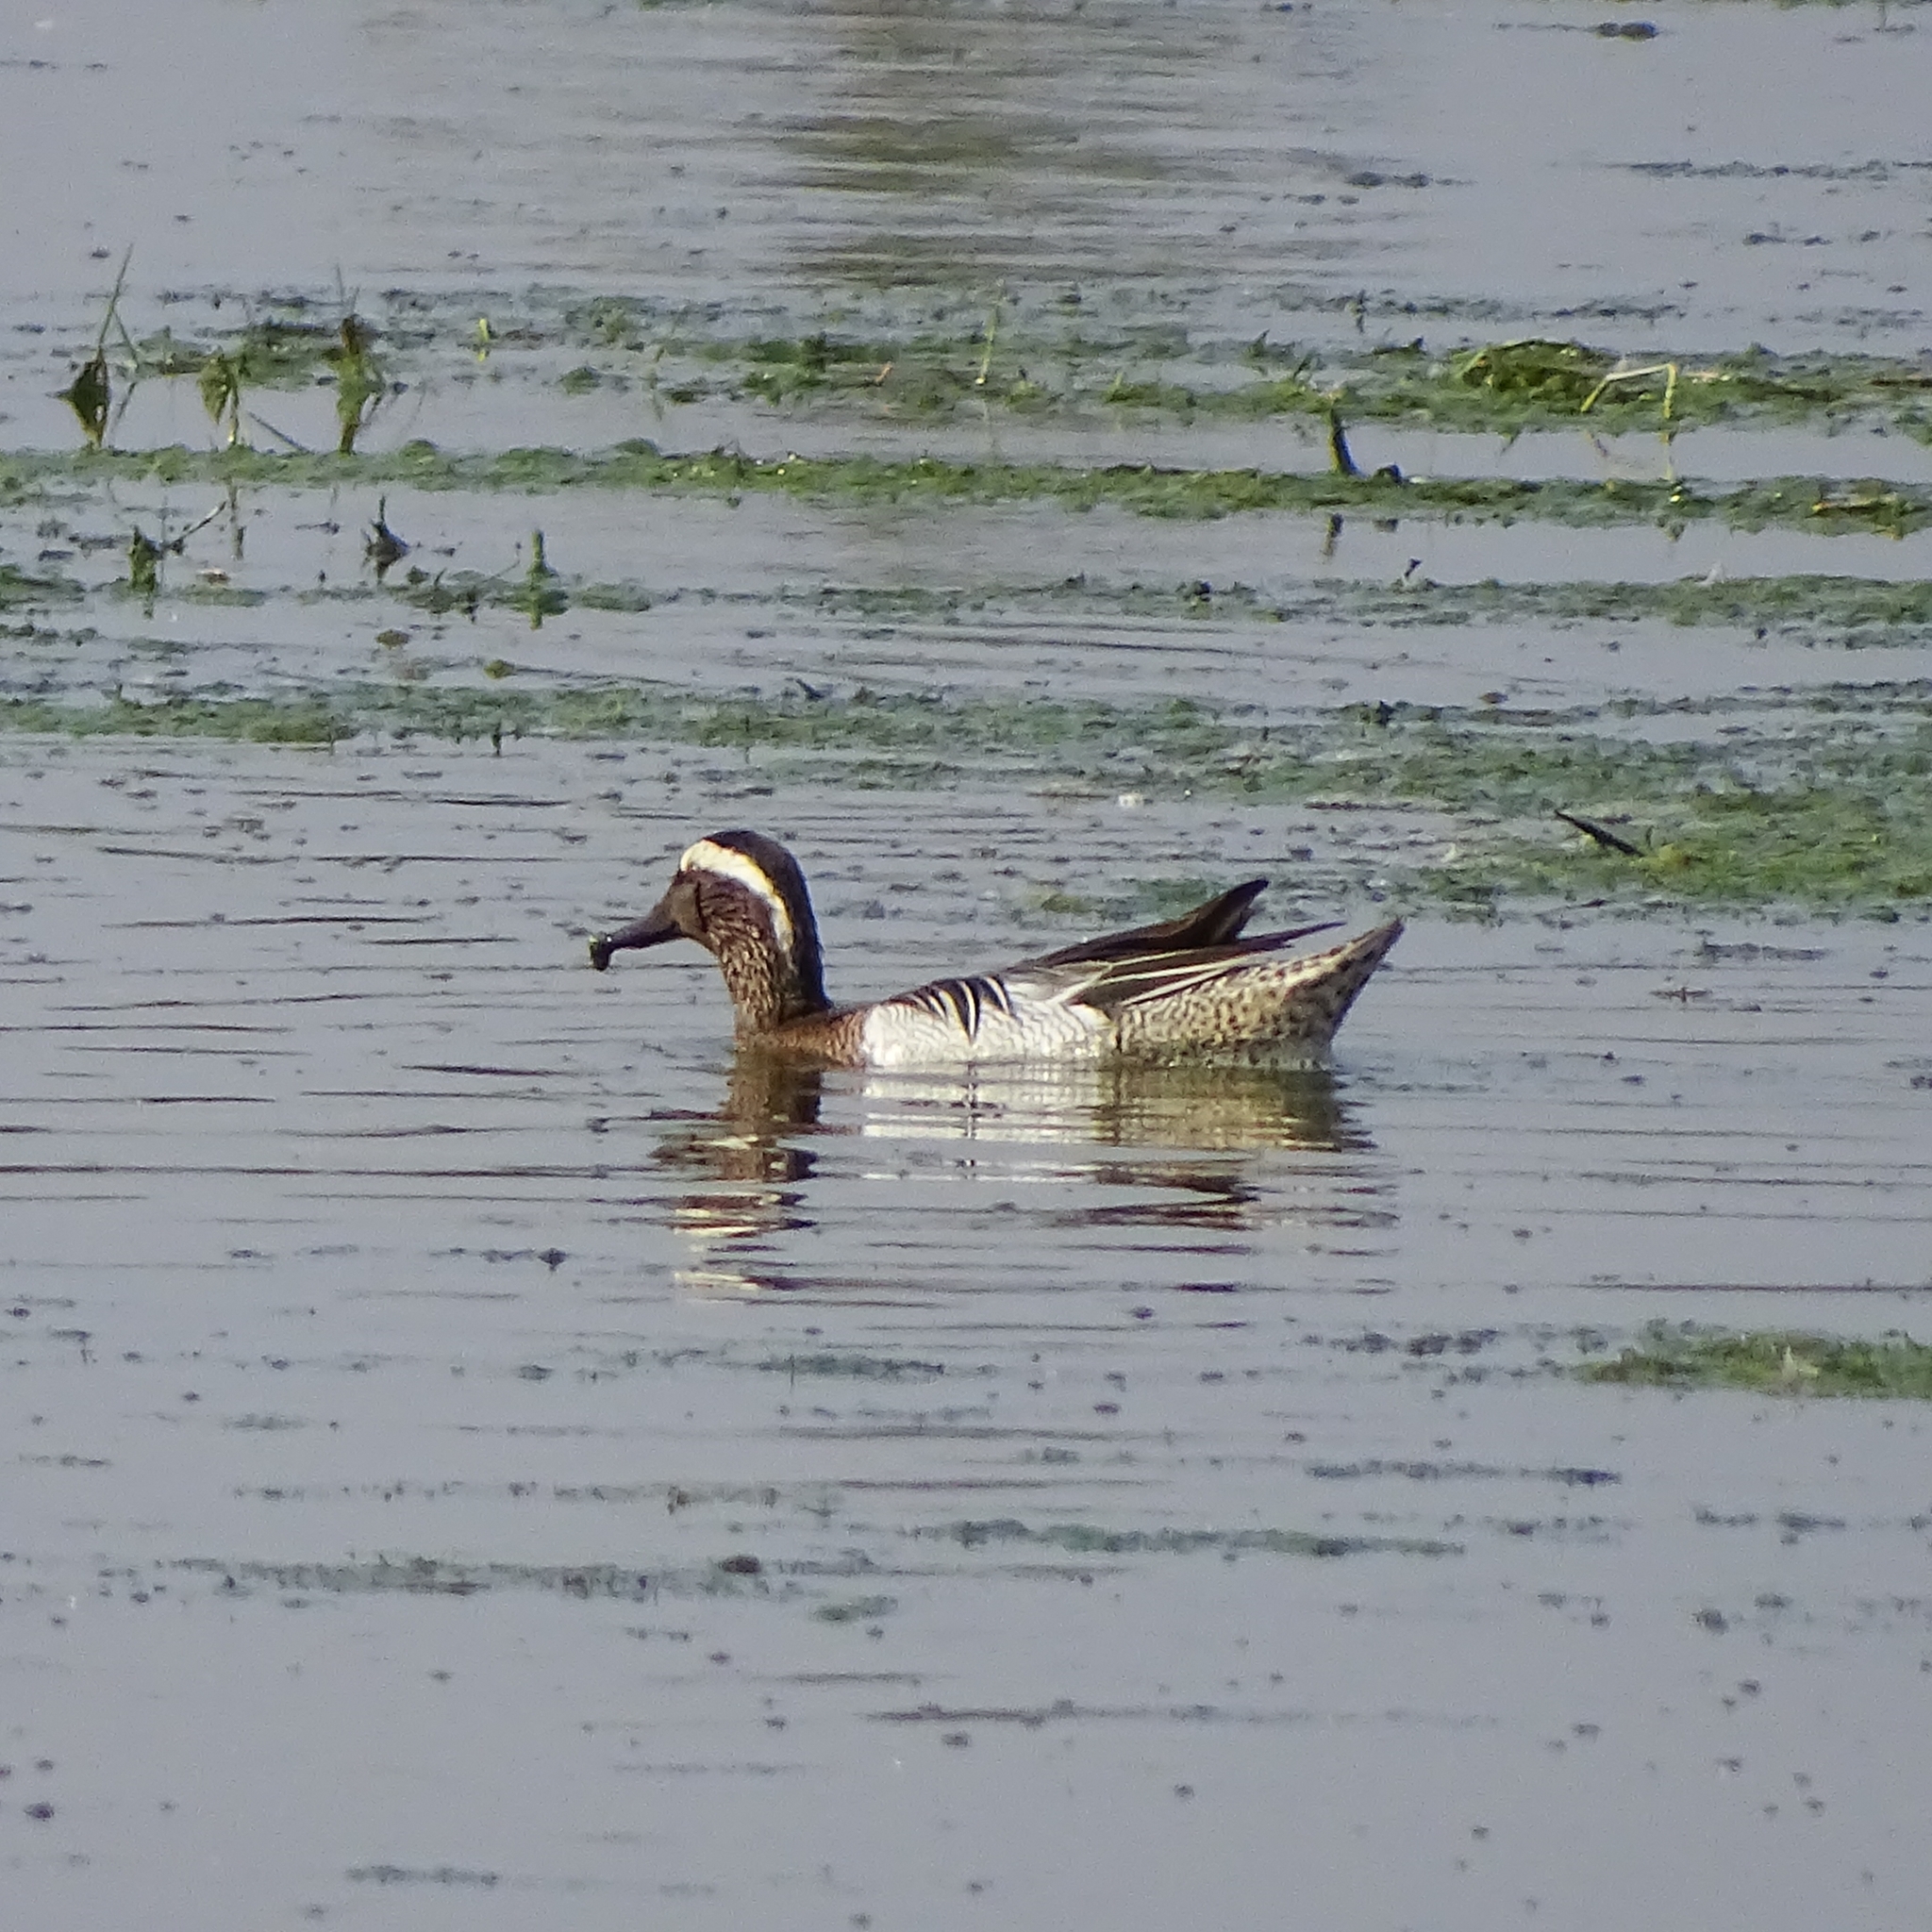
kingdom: Animalia
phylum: Chordata
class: Aves
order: Anseriformes
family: Anatidae
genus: Spatula
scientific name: Spatula querquedula
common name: Garganey
